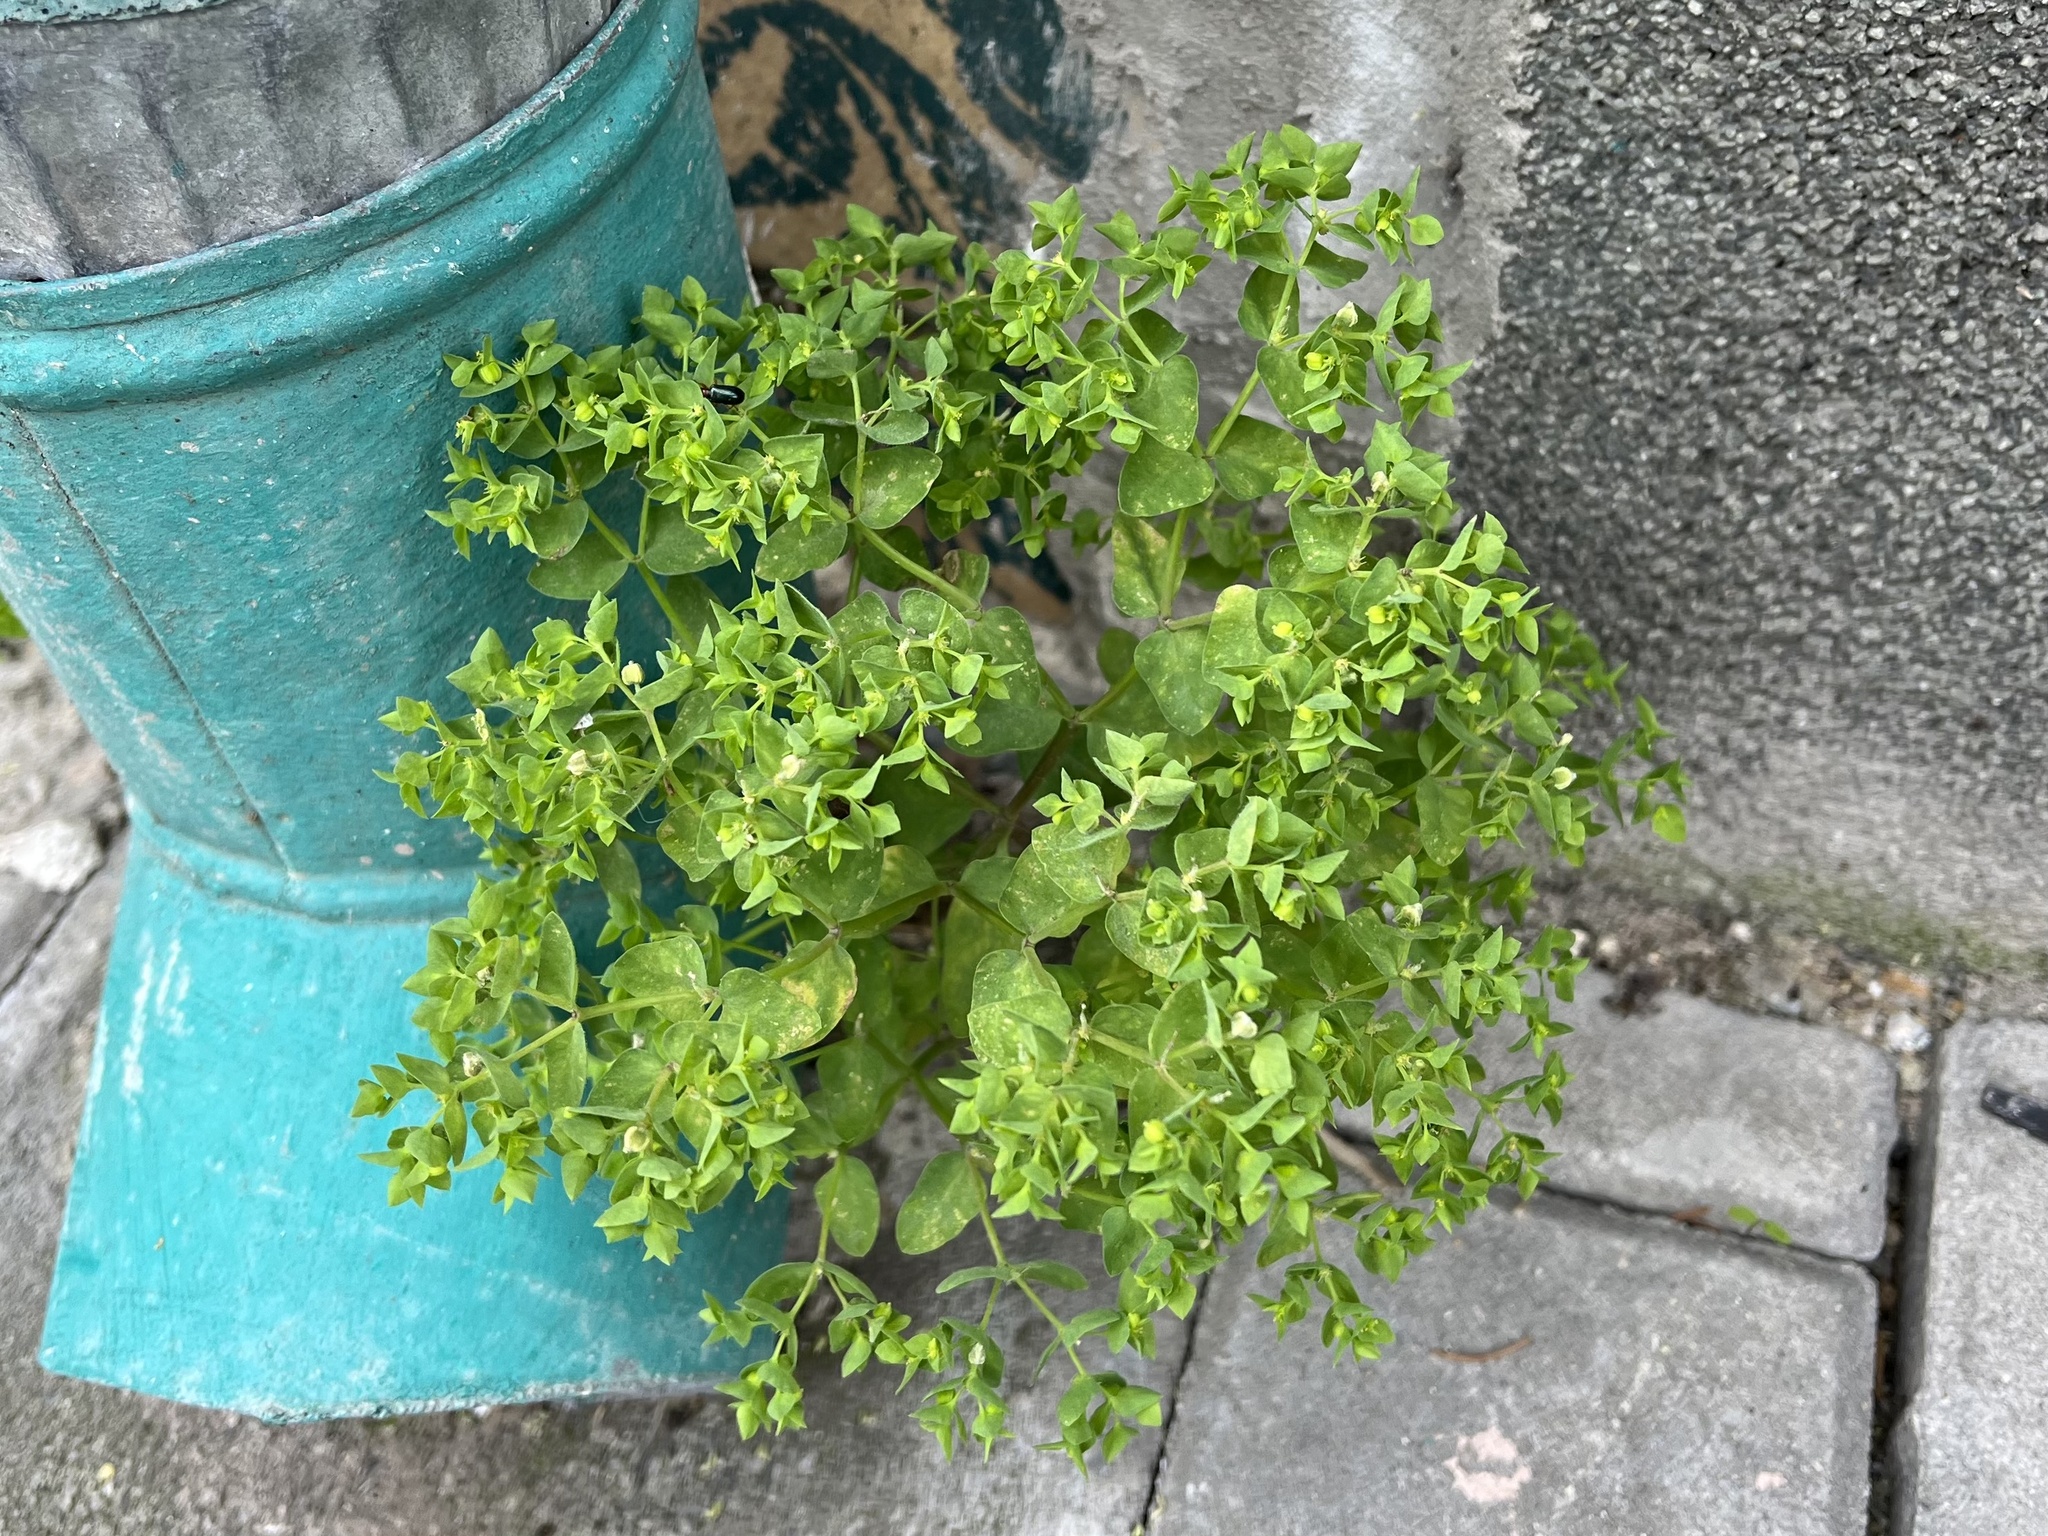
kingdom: Plantae
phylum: Tracheophyta
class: Magnoliopsida
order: Malpighiales
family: Euphorbiaceae
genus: Euphorbia
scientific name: Euphorbia peplus
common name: Petty spurge
